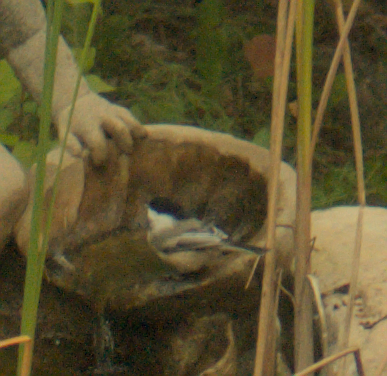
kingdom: Animalia
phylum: Chordata
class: Aves
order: Passeriformes
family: Paridae
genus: Poecile
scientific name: Poecile atricapillus
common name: Black-capped chickadee
